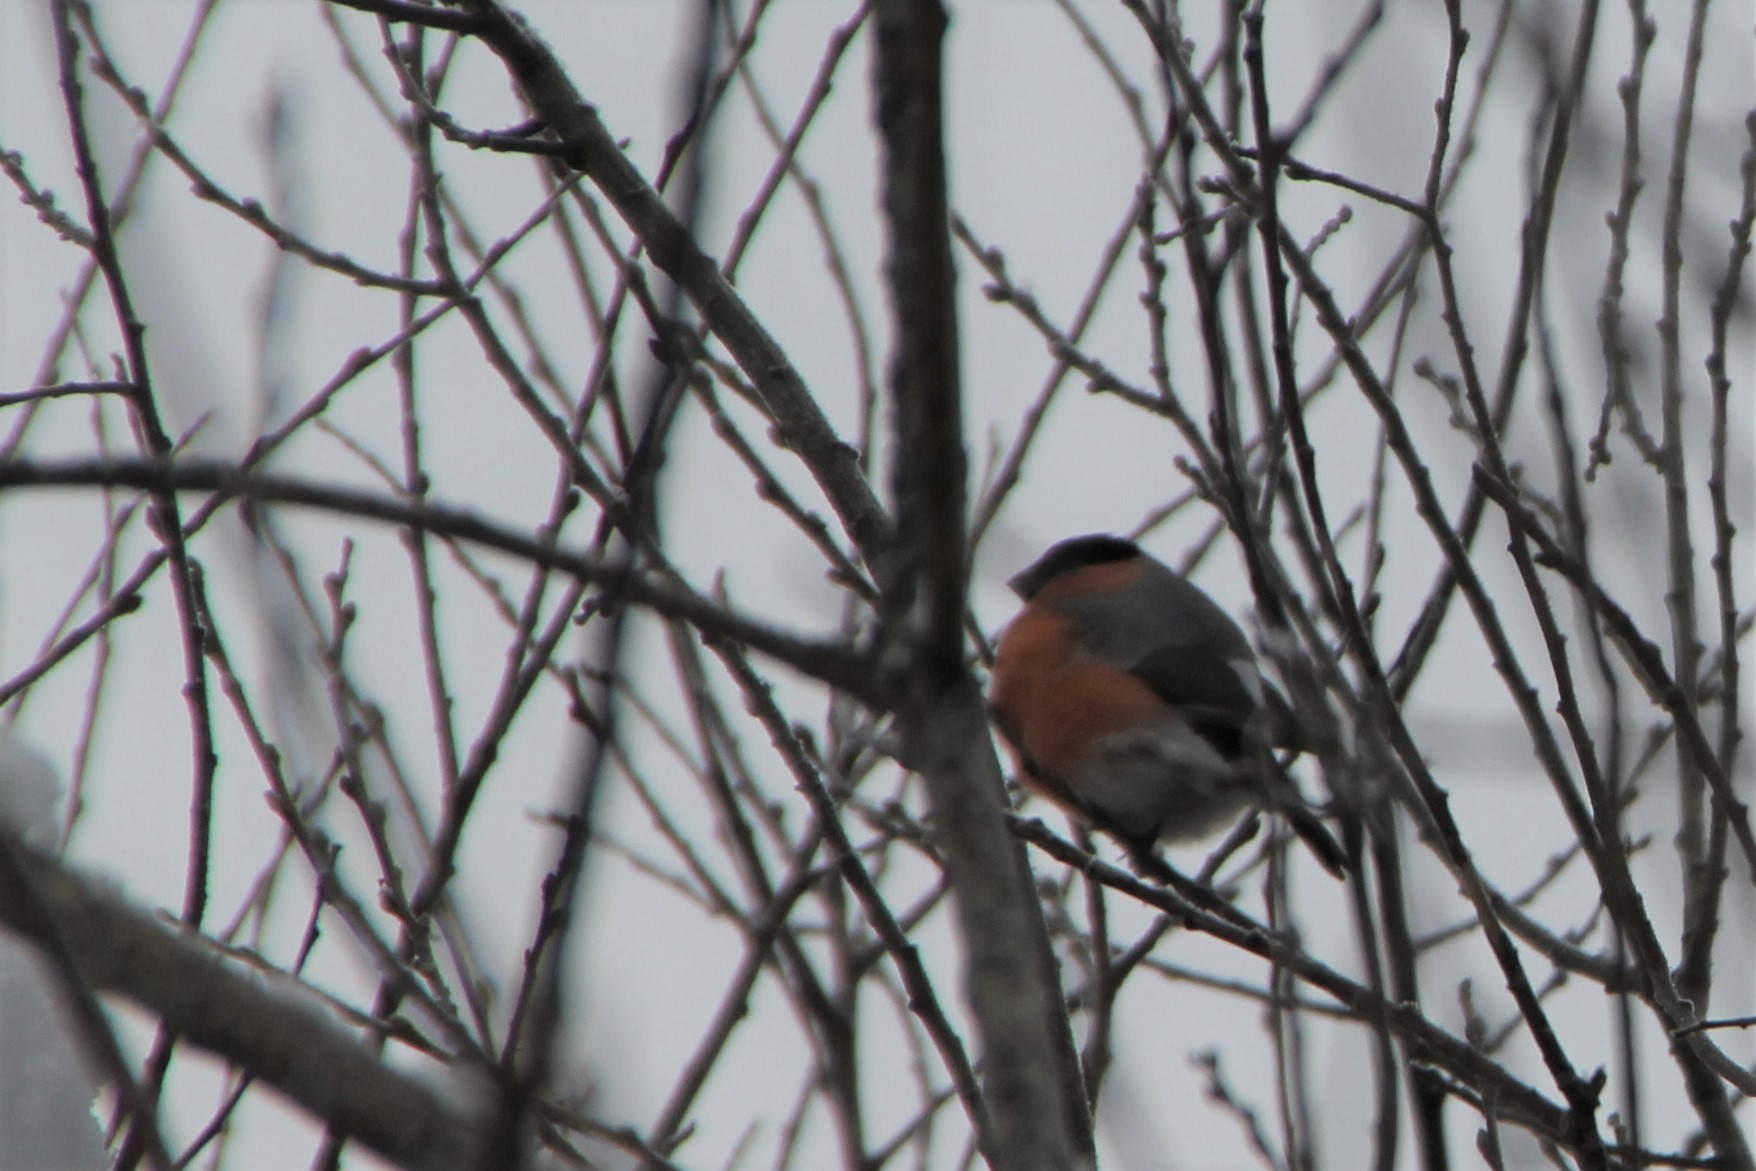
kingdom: Animalia
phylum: Chordata
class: Aves
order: Passeriformes
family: Fringillidae
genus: Pyrrhula
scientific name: Pyrrhula pyrrhula
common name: Eurasian bullfinch
